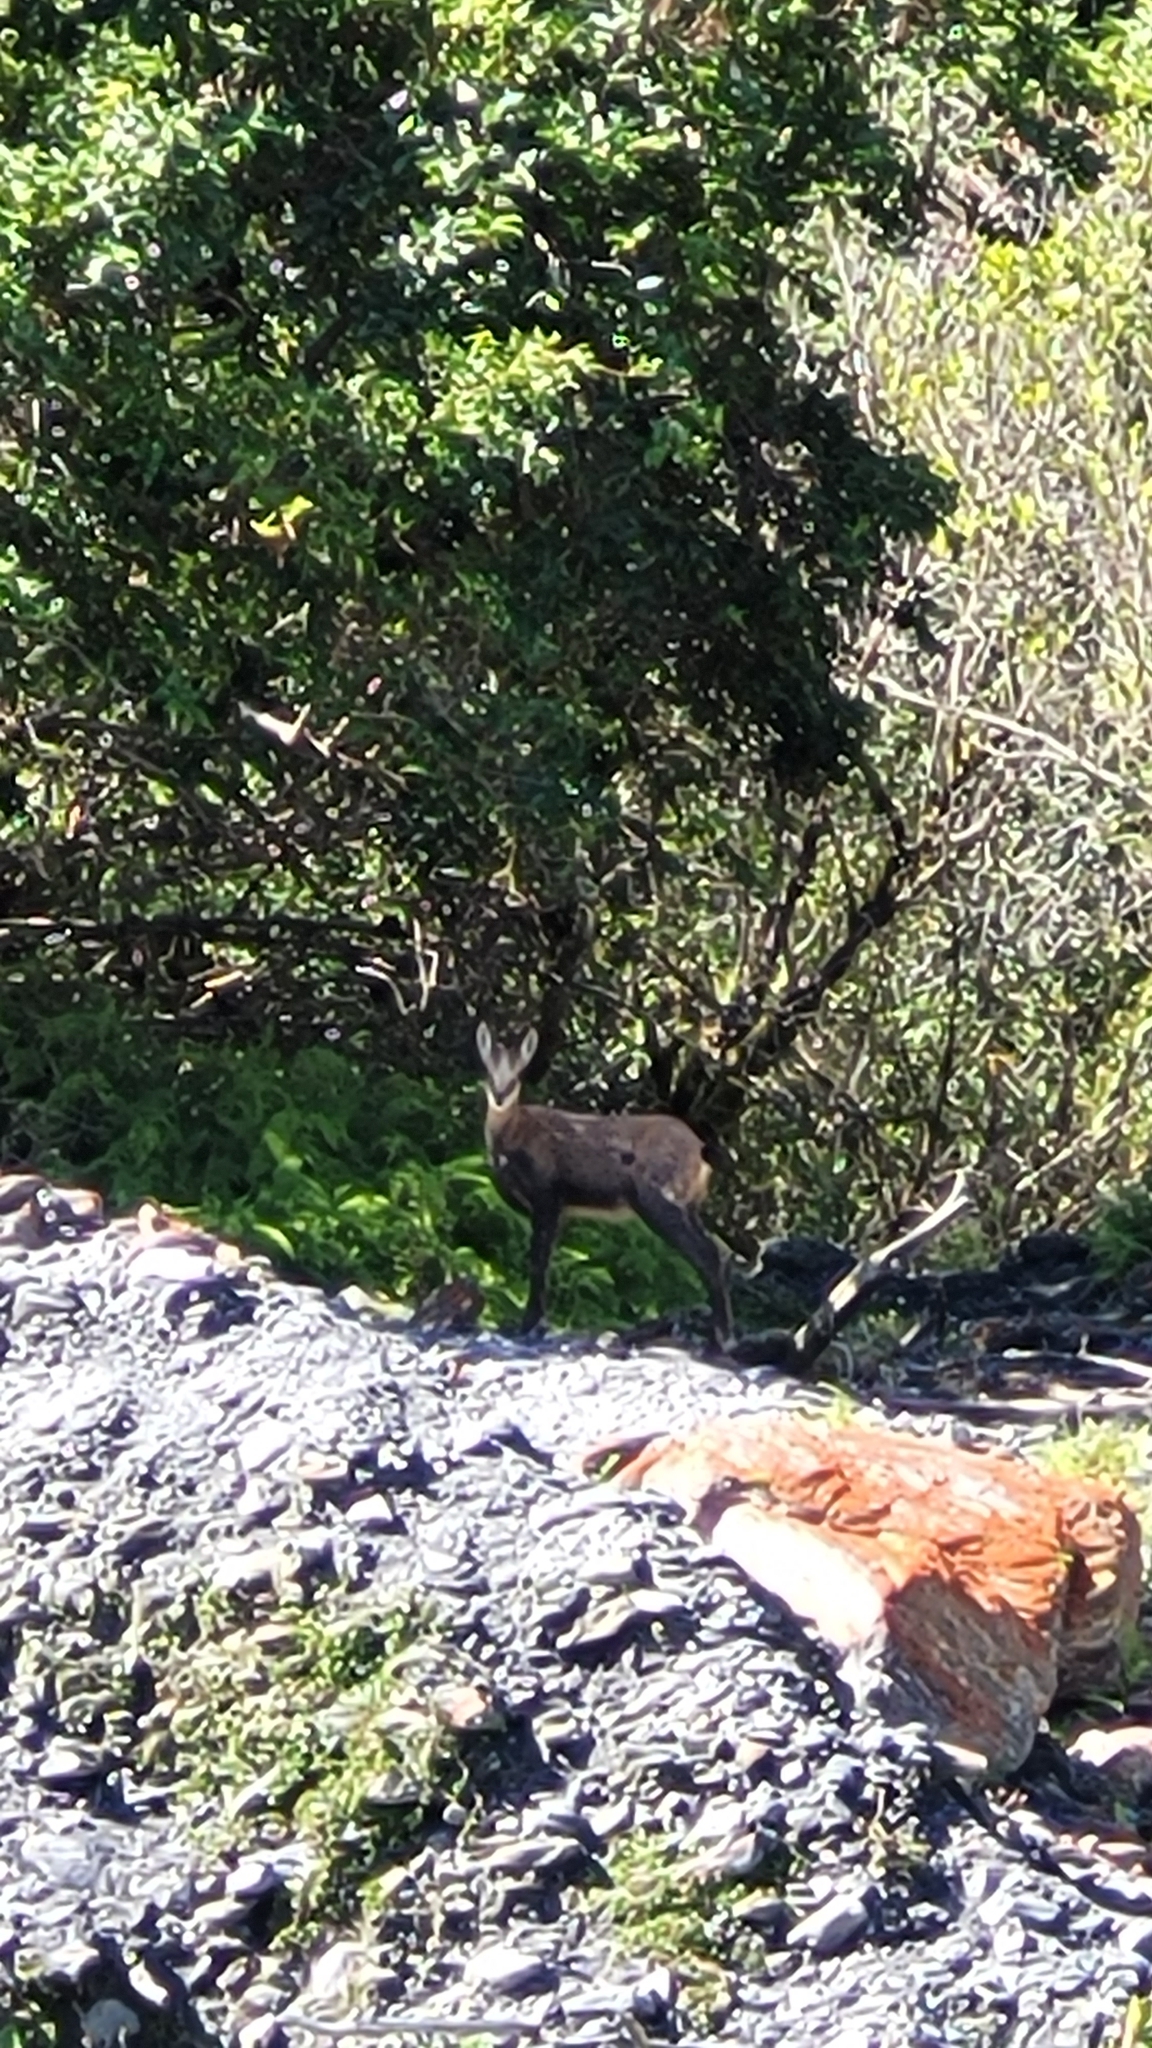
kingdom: Animalia
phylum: Chordata
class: Mammalia
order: Artiodactyla
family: Bovidae
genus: Rupicapra
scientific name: Rupicapra rupicapra
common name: Chamois
